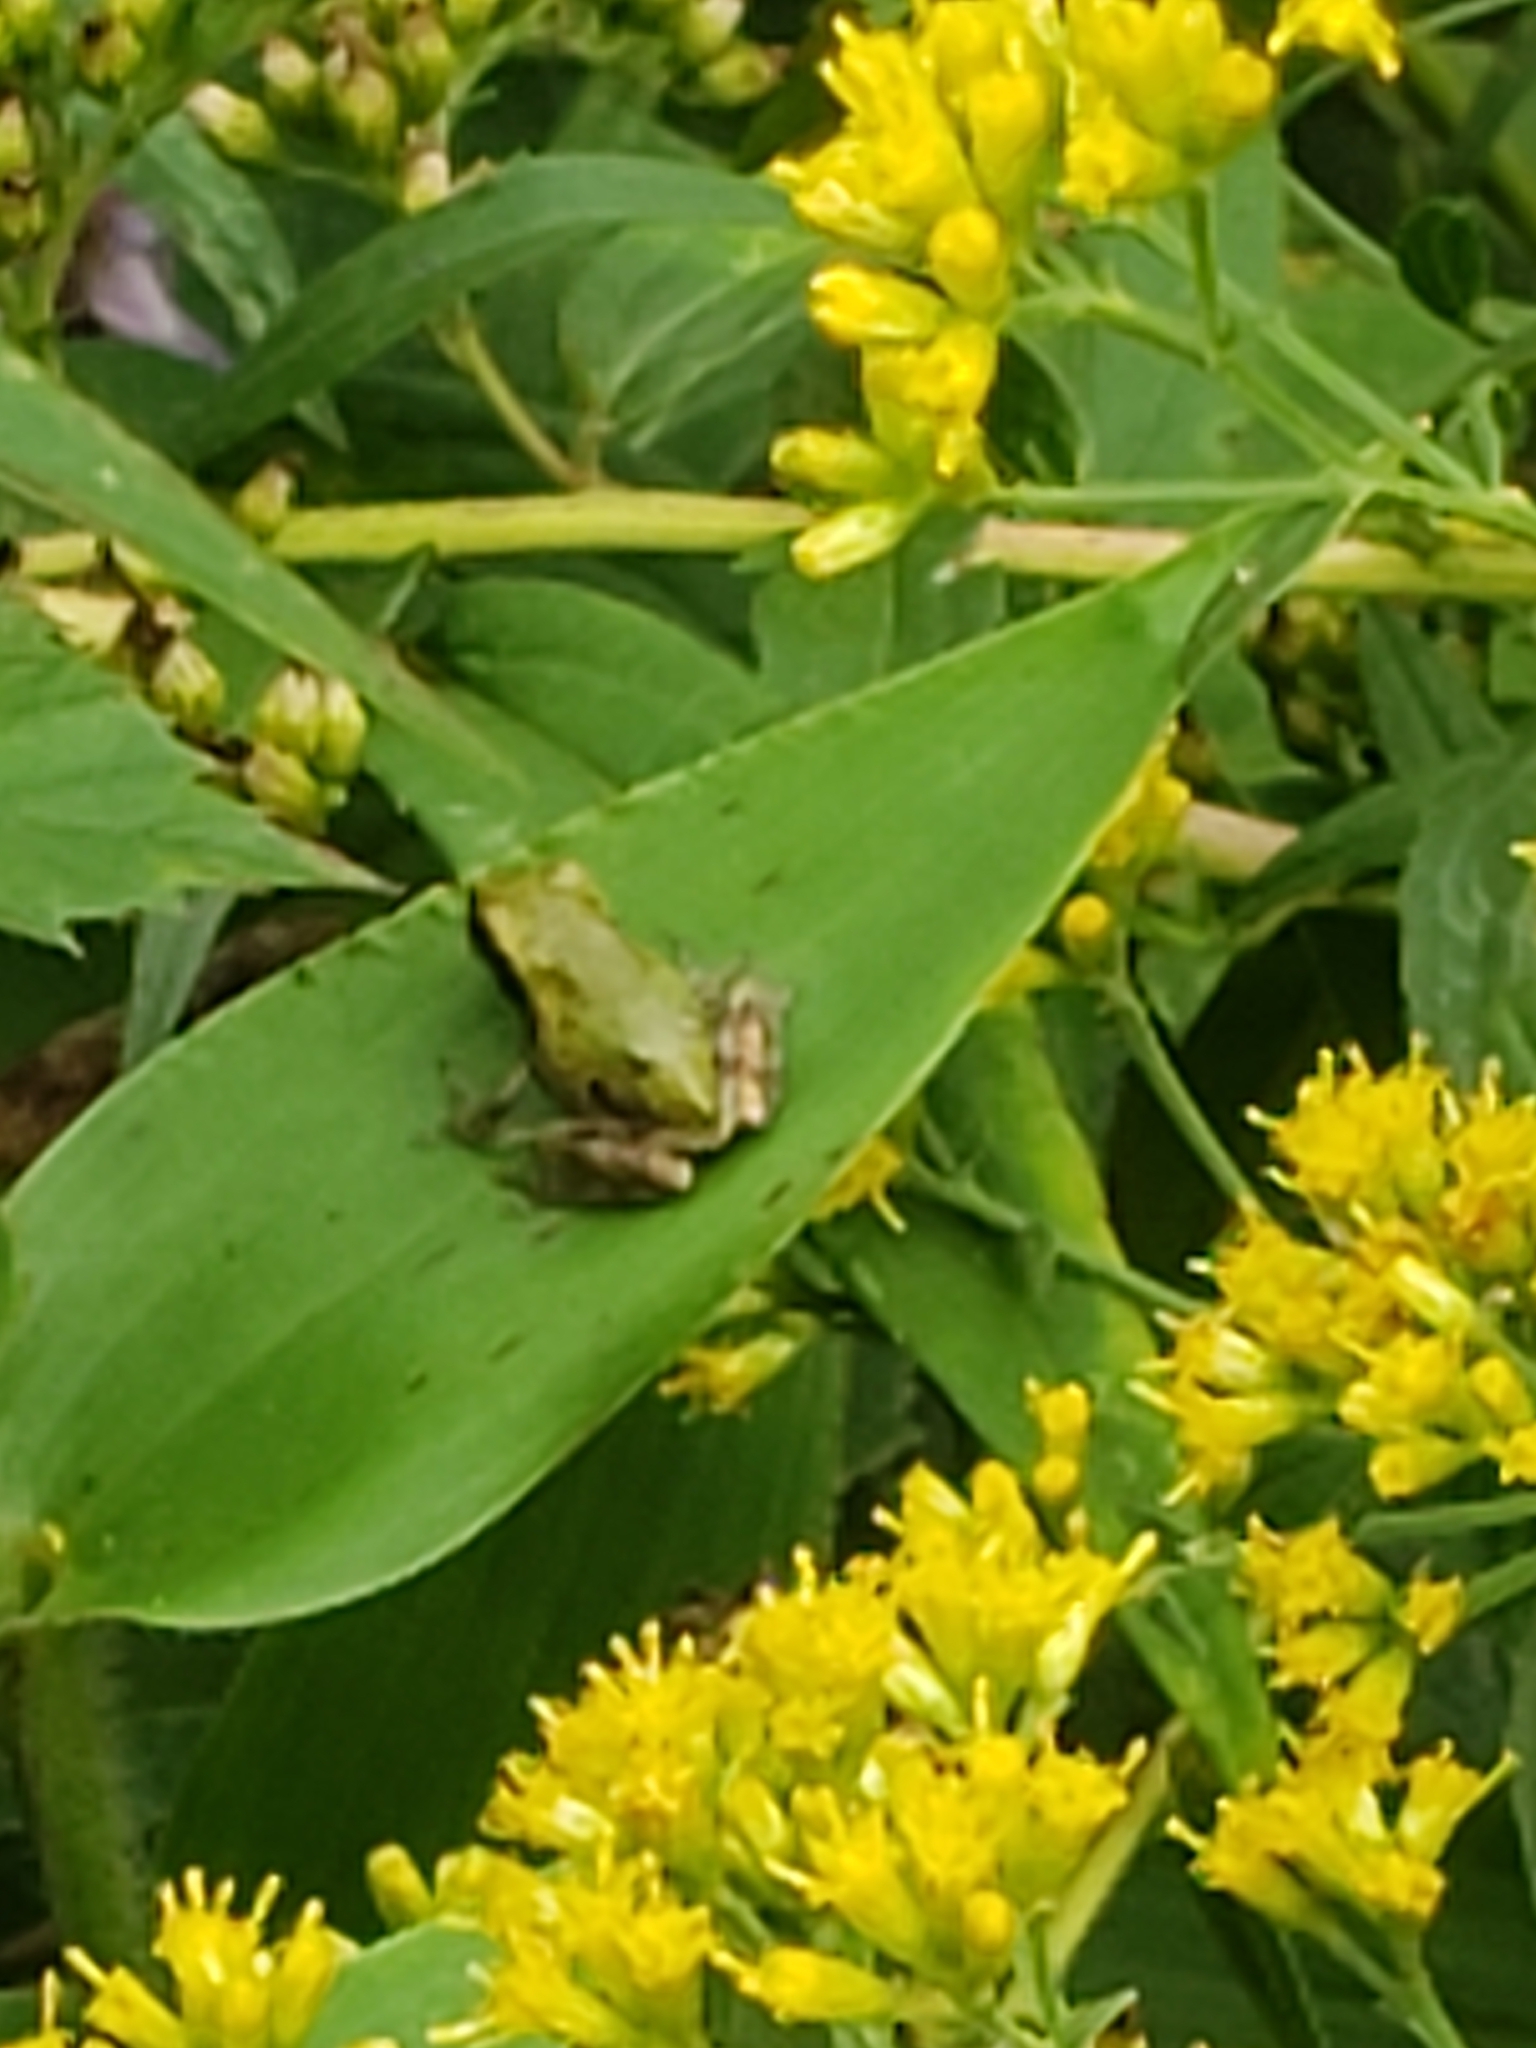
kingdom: Animalia
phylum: Chordata
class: Amphibia
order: Anura
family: Hylidae
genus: Hyla
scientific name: Hyla
